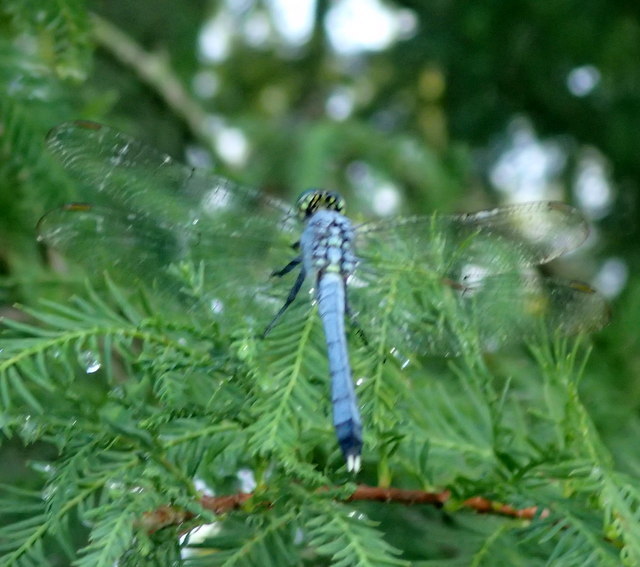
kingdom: Animalia
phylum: Arthropoda
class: Insecta
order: Odonata
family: Libellulidae
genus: Erythemis
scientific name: Erythemis simplicicollis
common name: Eastern pondhawk
